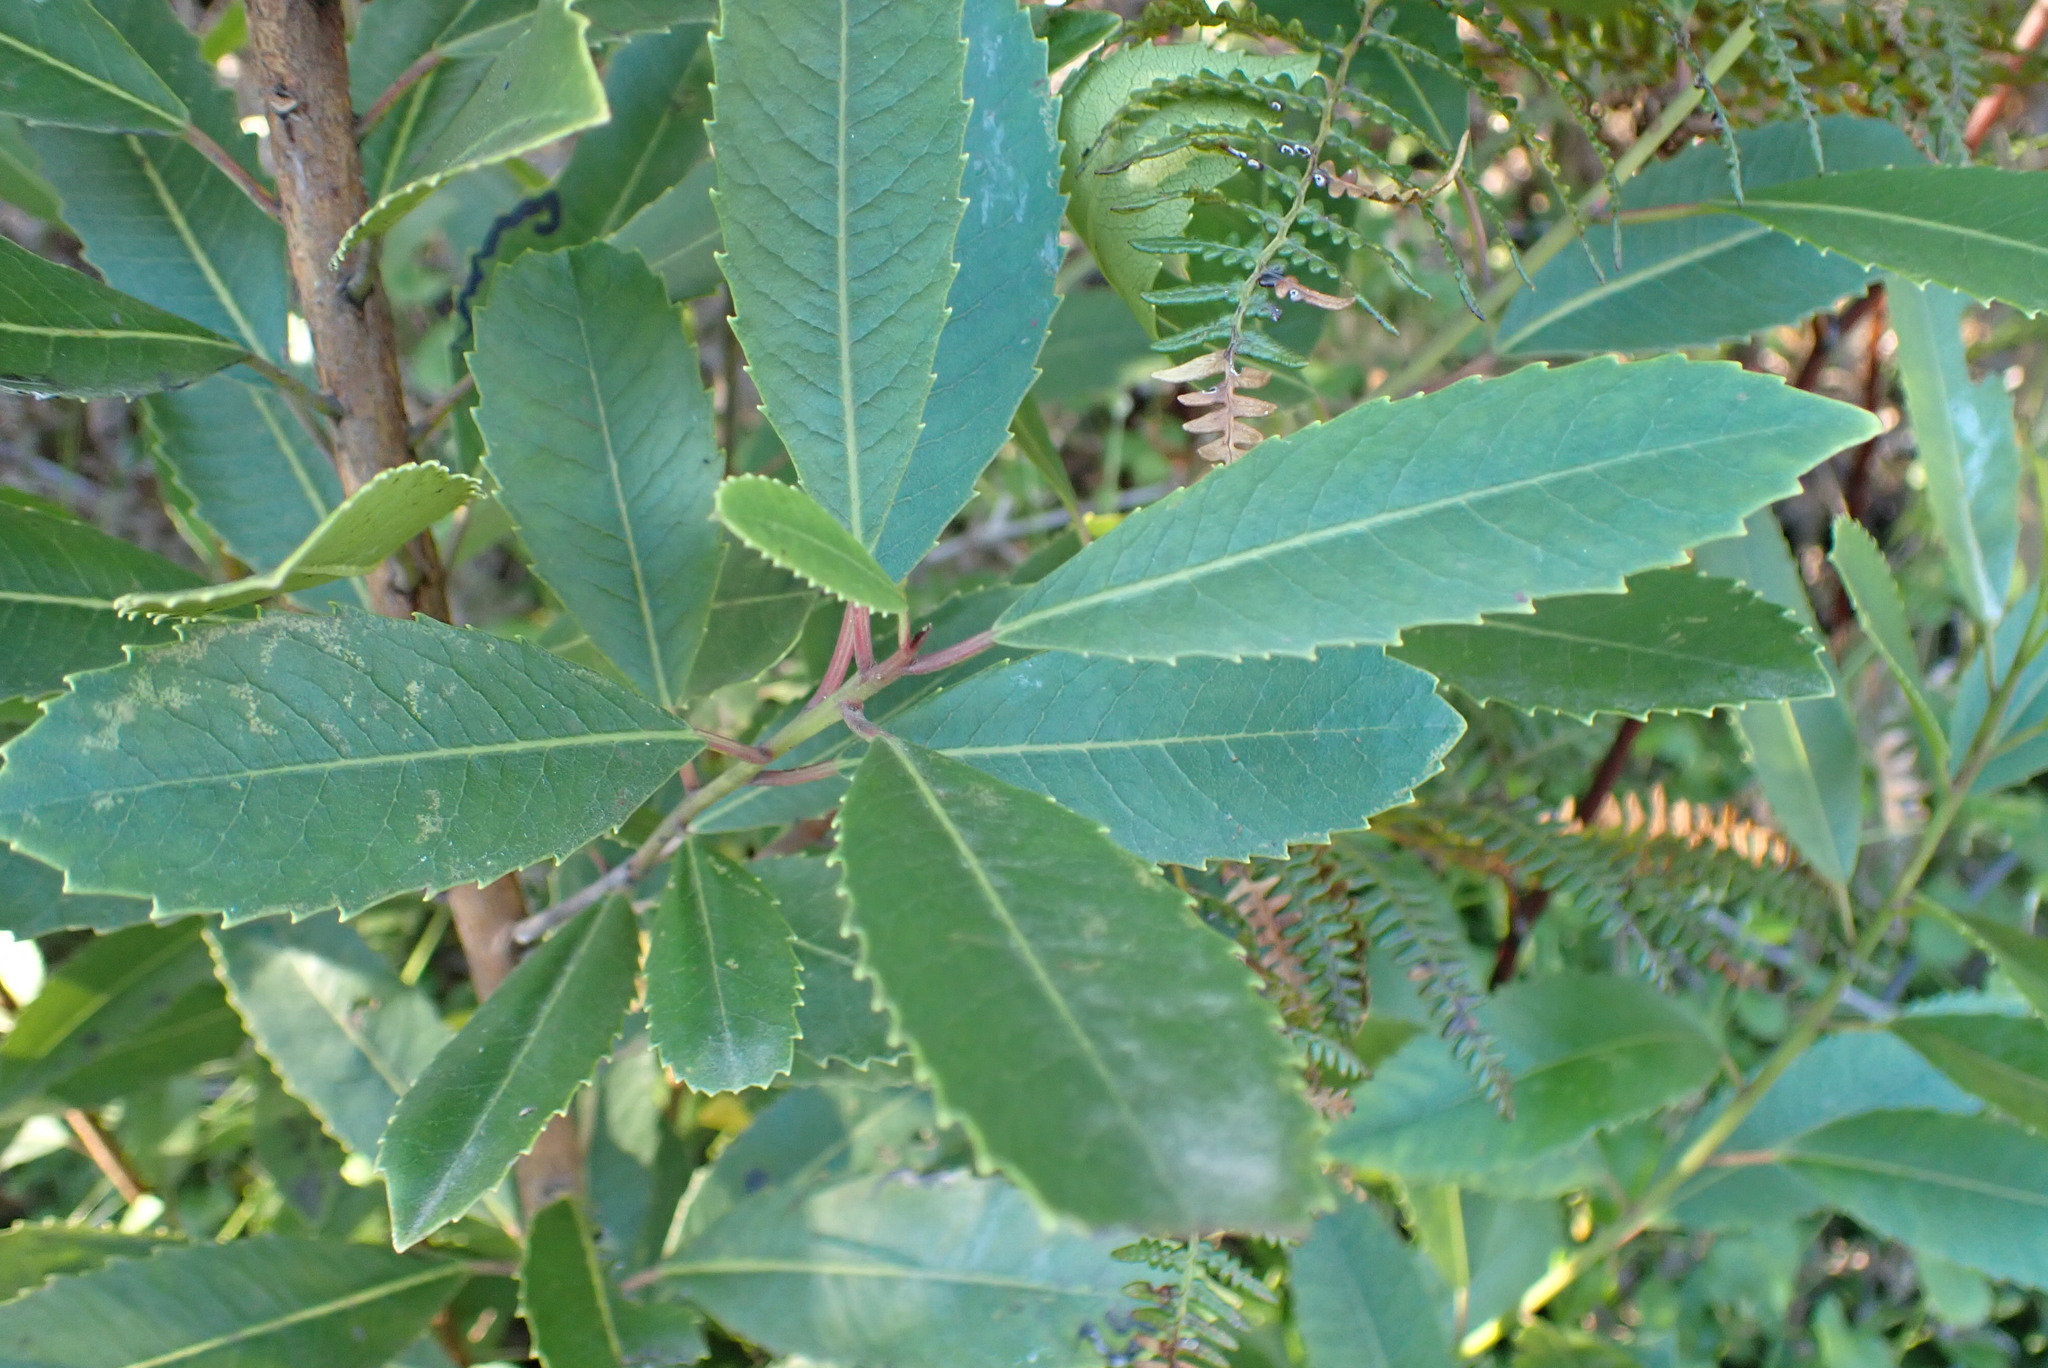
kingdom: Plantae
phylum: Tracheophyta
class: Magnoliopsida
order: Sapindales
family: Anacardiaceae
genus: Laurophyllus
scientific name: Laurophyllus capensis
